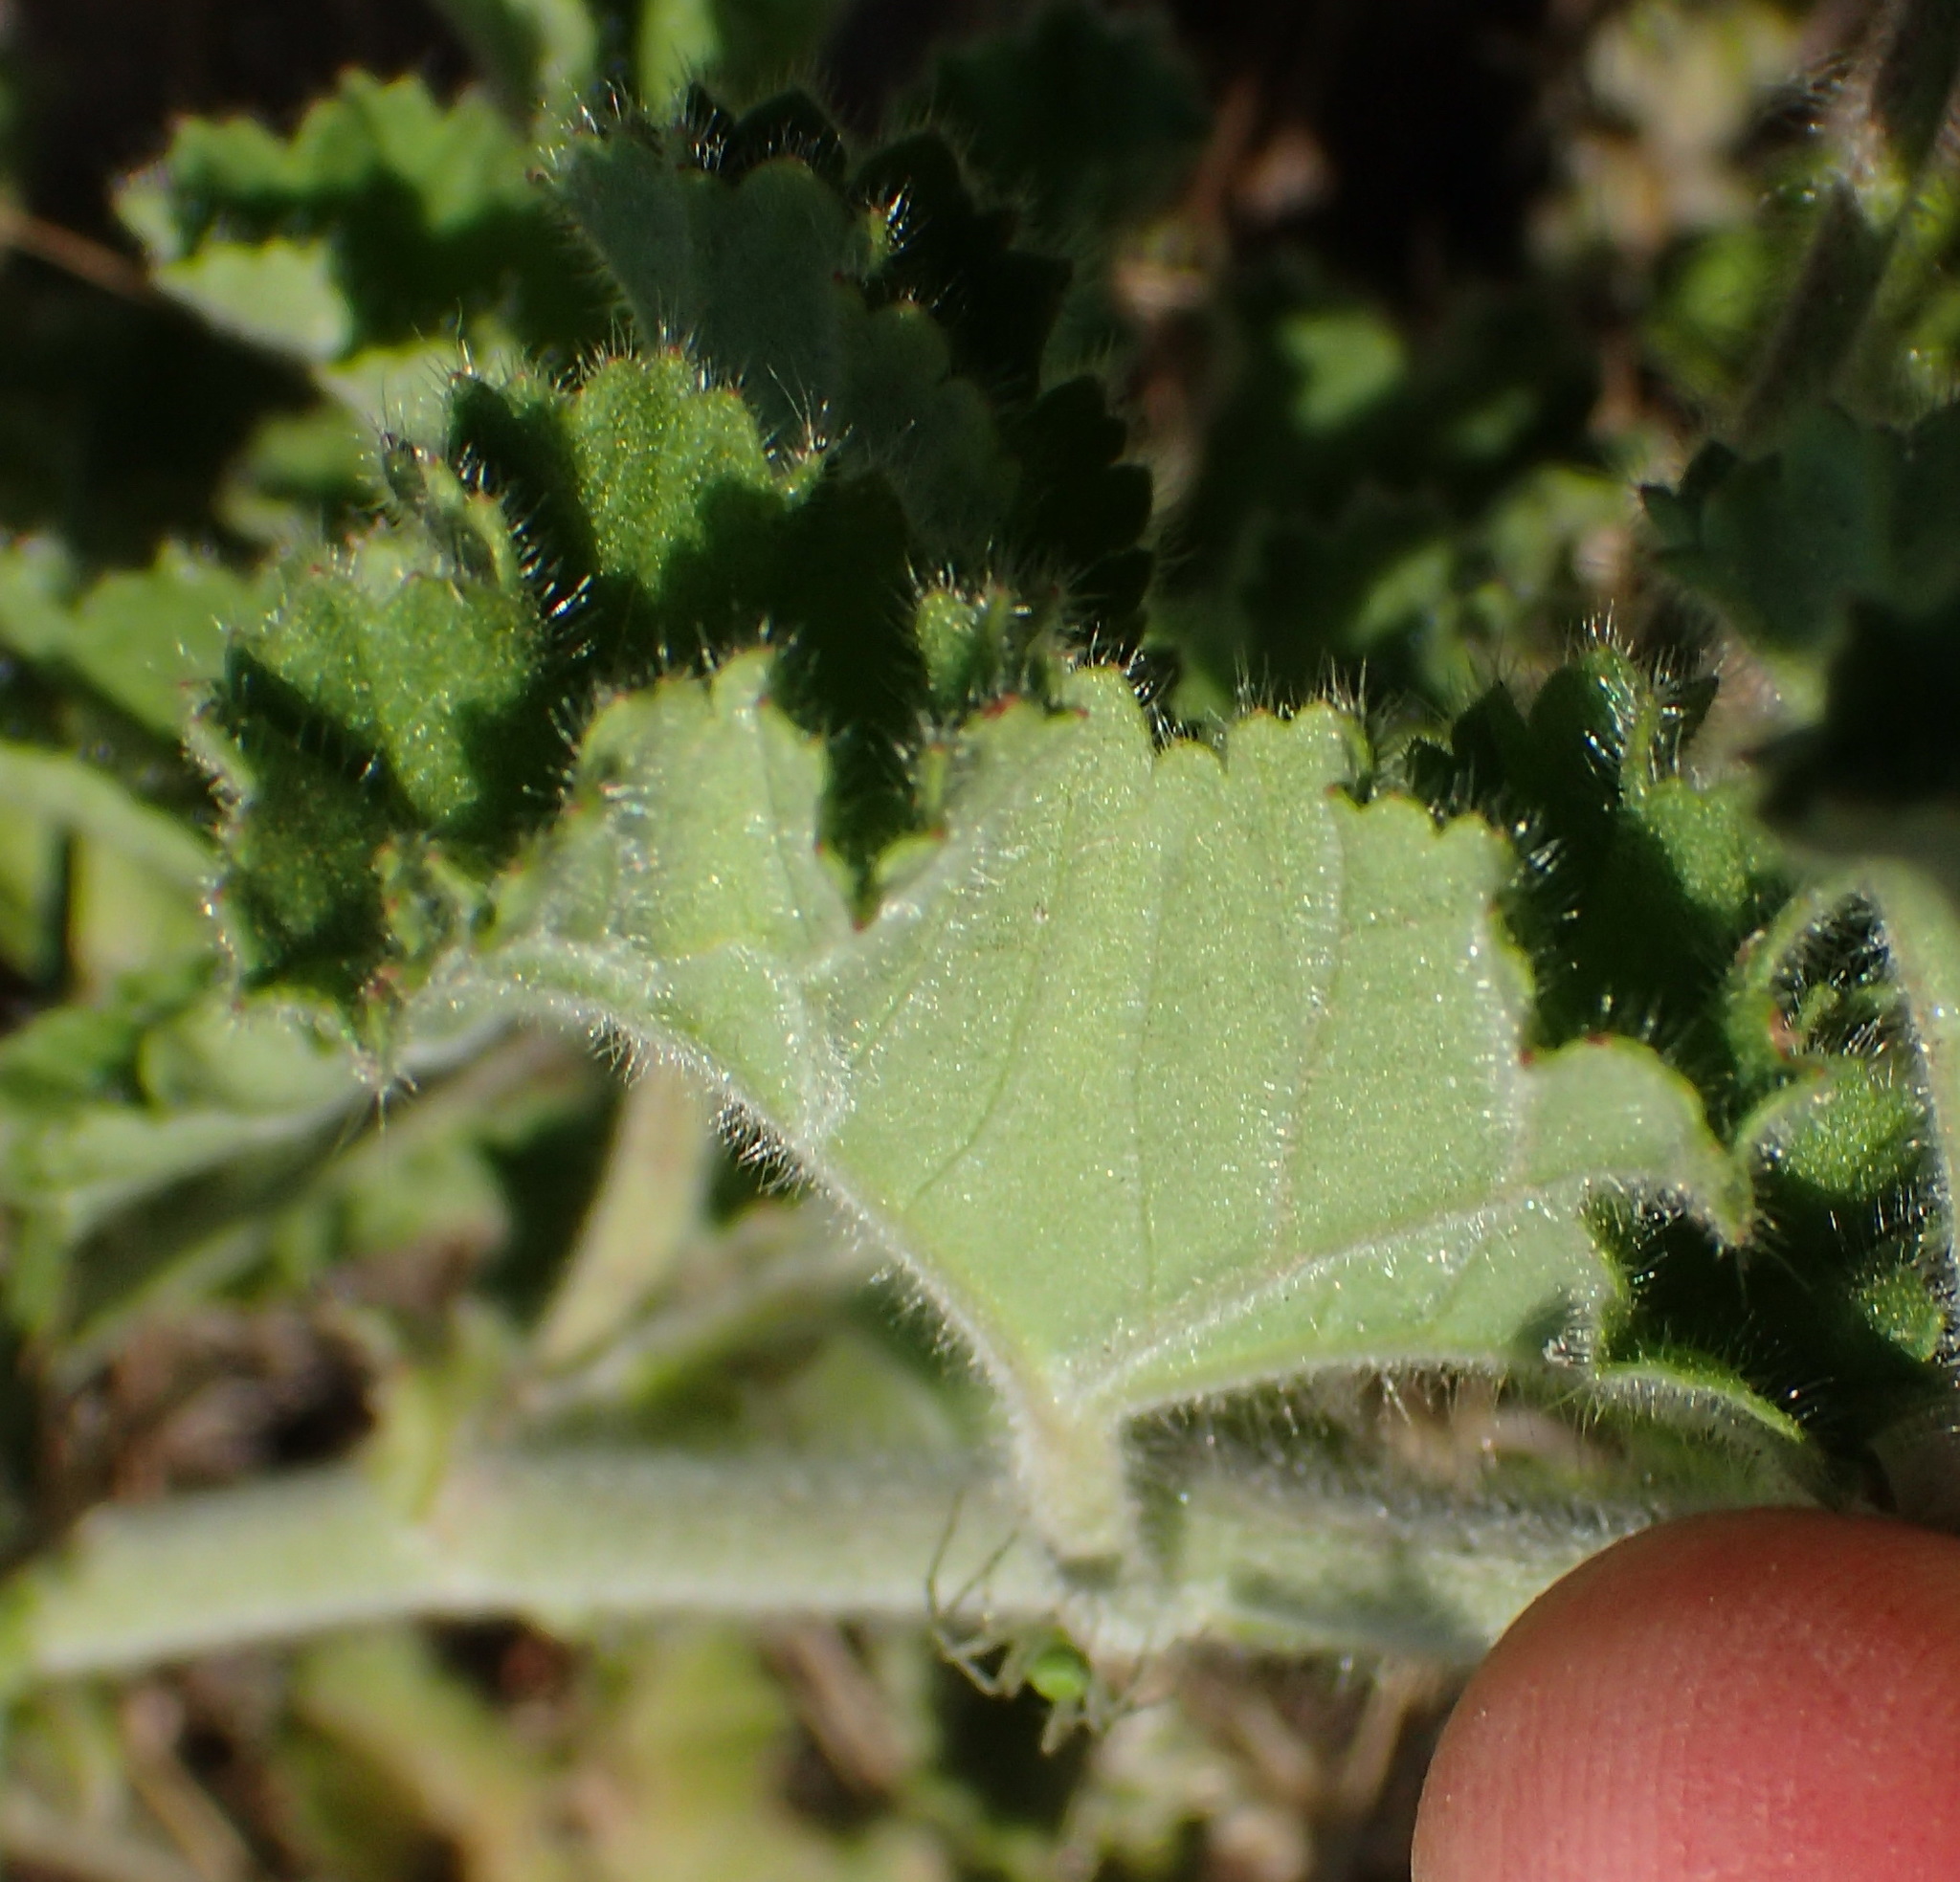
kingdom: Plantae
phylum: Tracheophyta
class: Magnoliopsida
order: Geraniales
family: Geraniaceae
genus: Pelargonium
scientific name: Pelargonium capitatum
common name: Rose scented geranium
